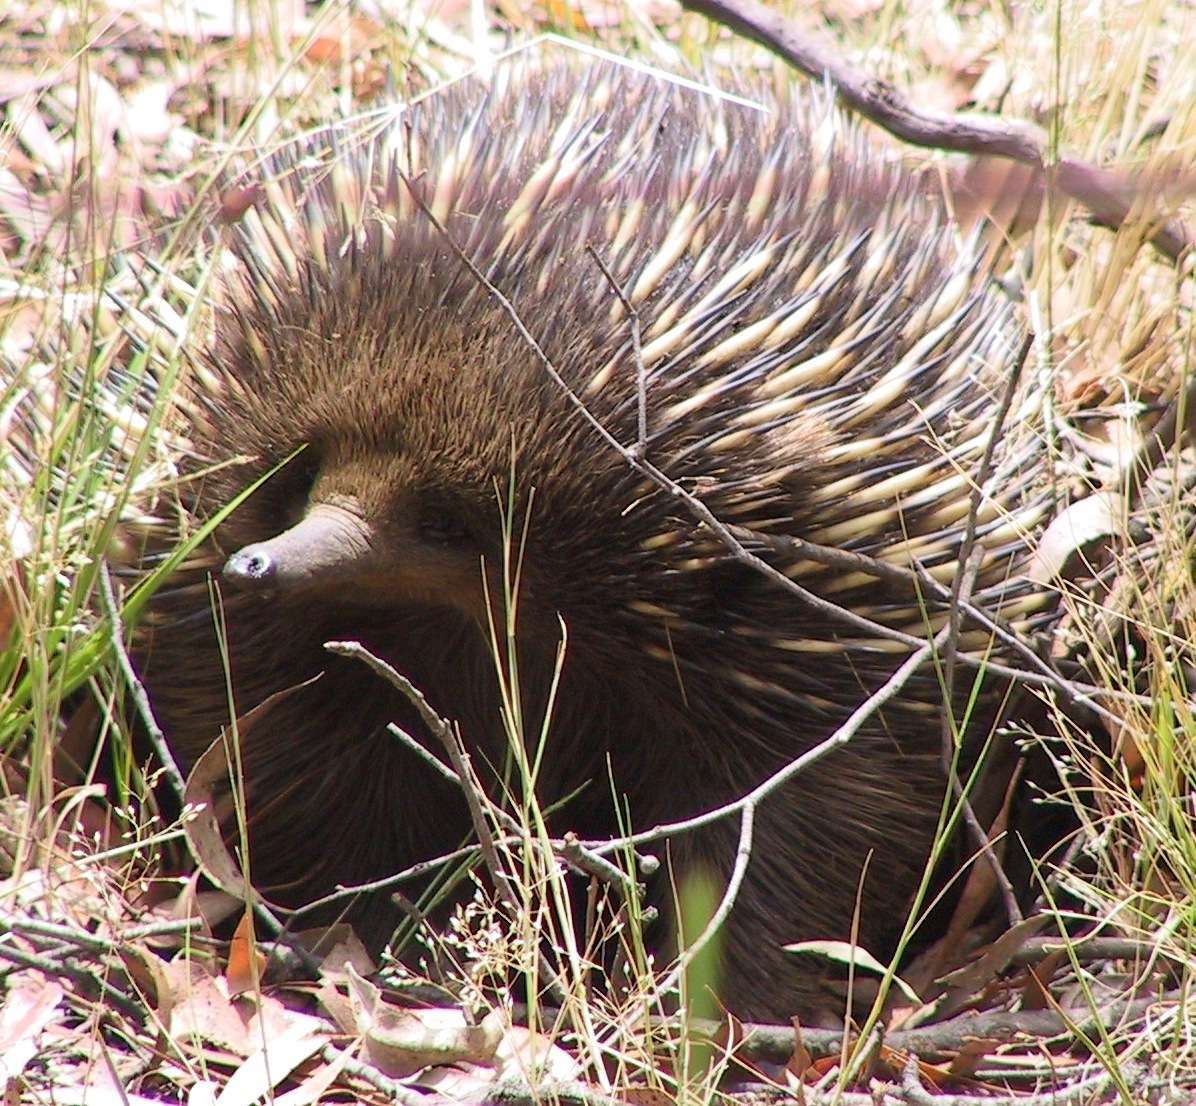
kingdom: Animalia
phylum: Chordata
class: Mammalia
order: Monotremata
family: Tachyglossidae
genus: Tachyglossus
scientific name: Tachyglossus aculeatus
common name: Short-beaked echidna
